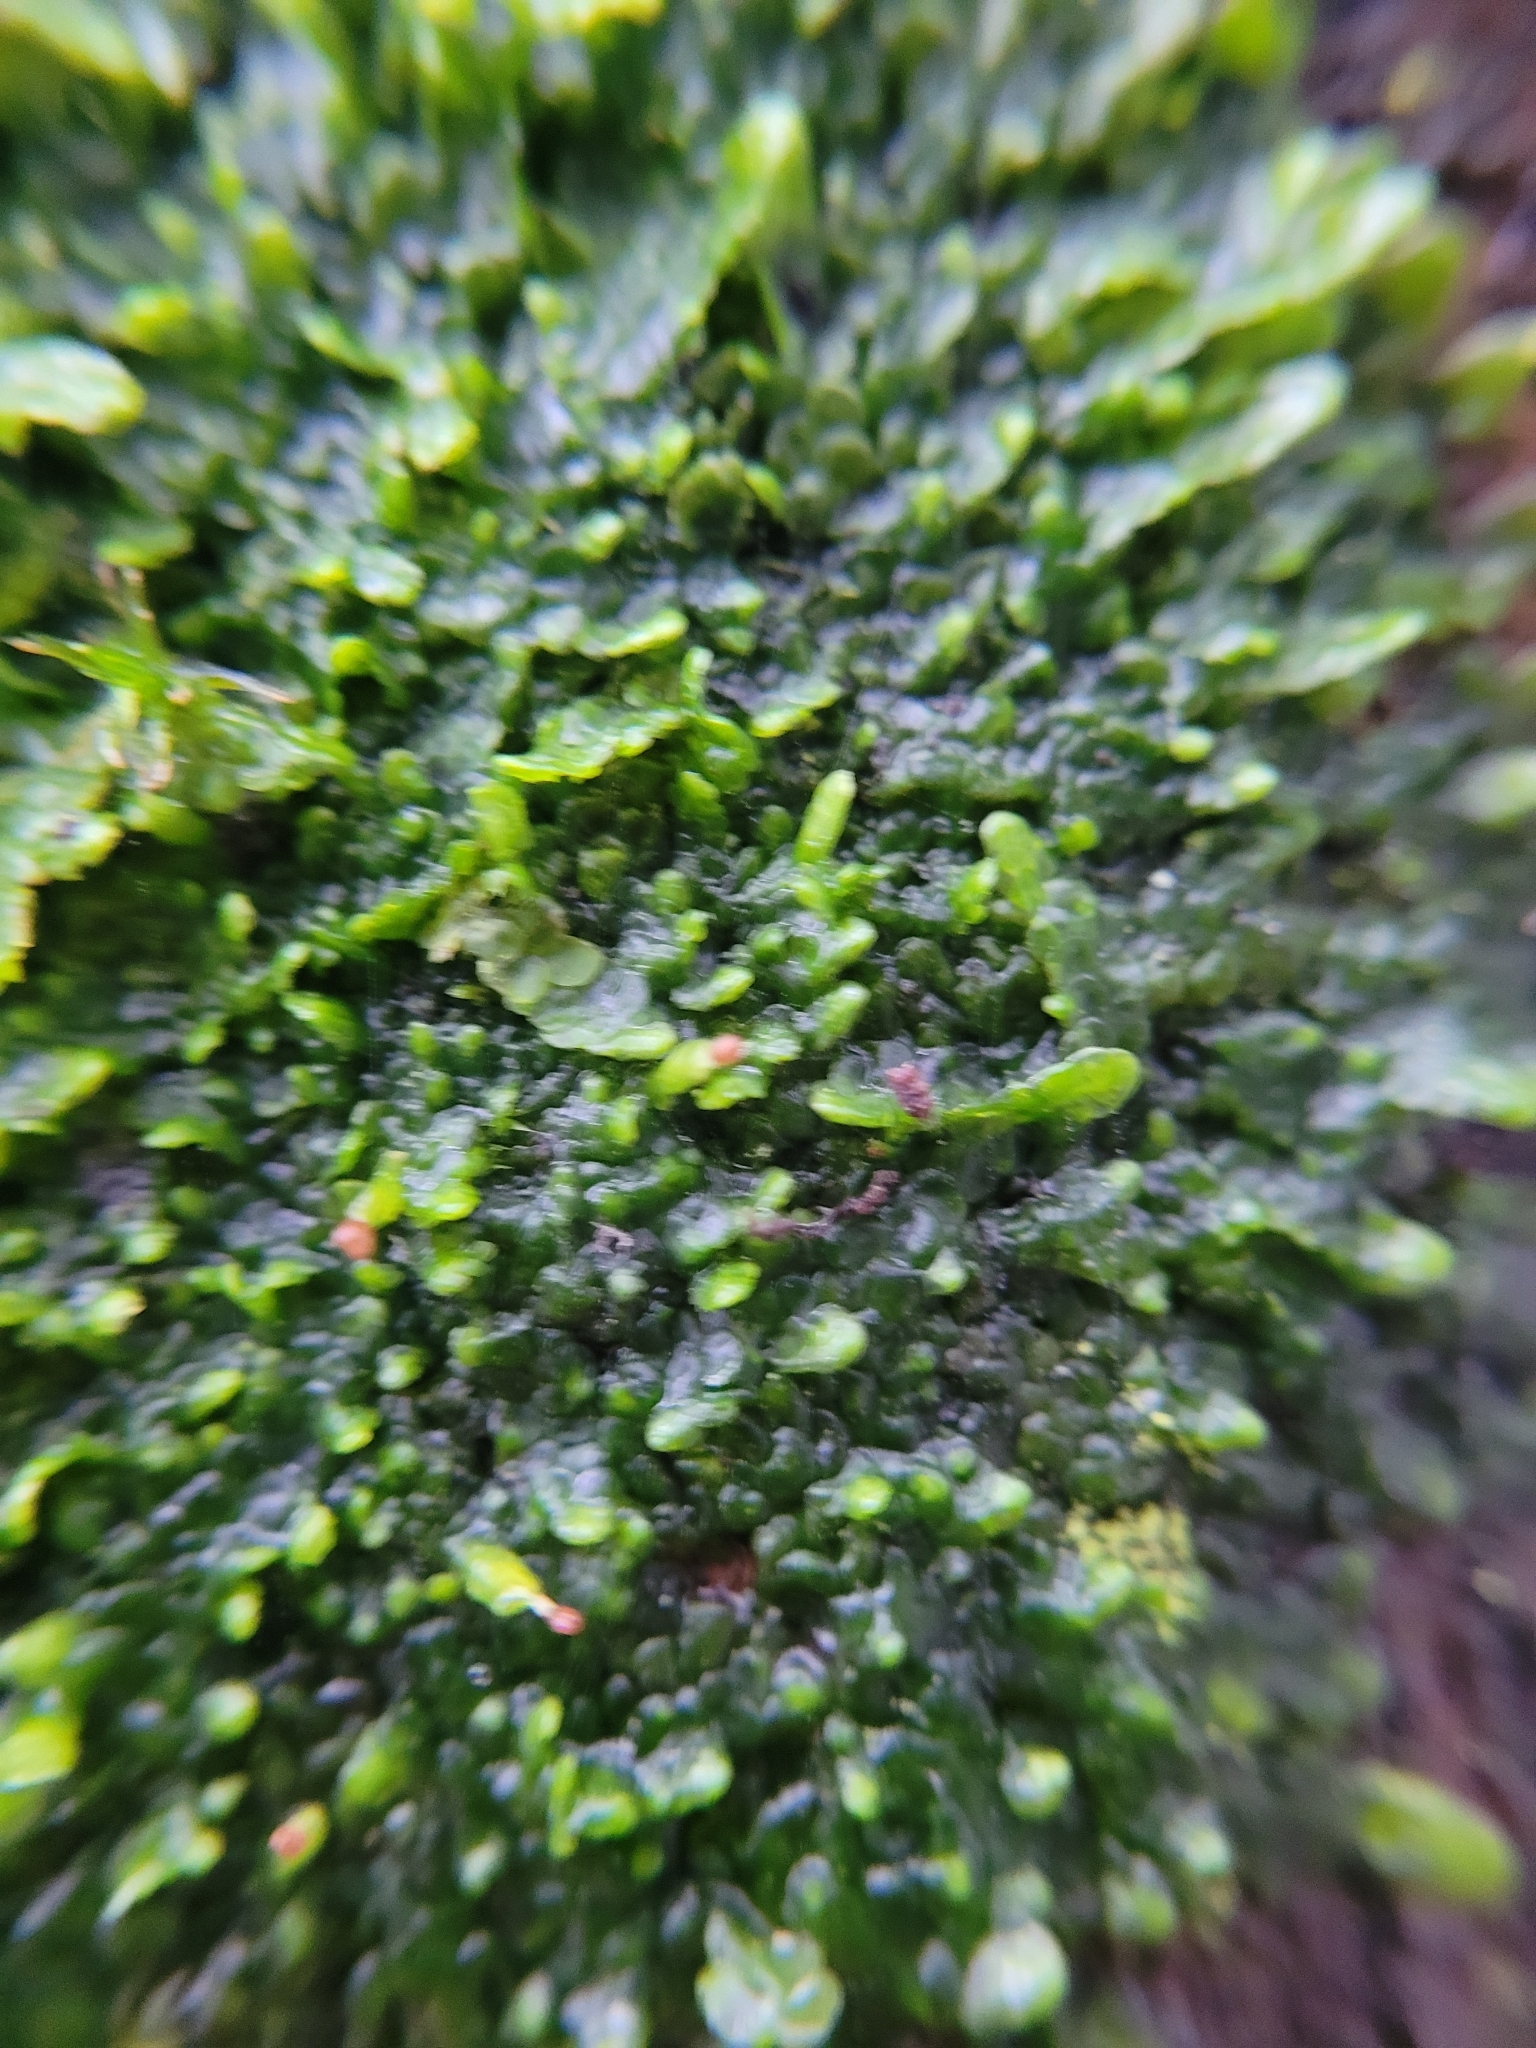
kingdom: Plantae
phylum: Marchantiophyta
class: Jungermanniopsida
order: Porellales
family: Radulaceae
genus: Radula
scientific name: Radula complanata
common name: Flat-leaved scalewort
